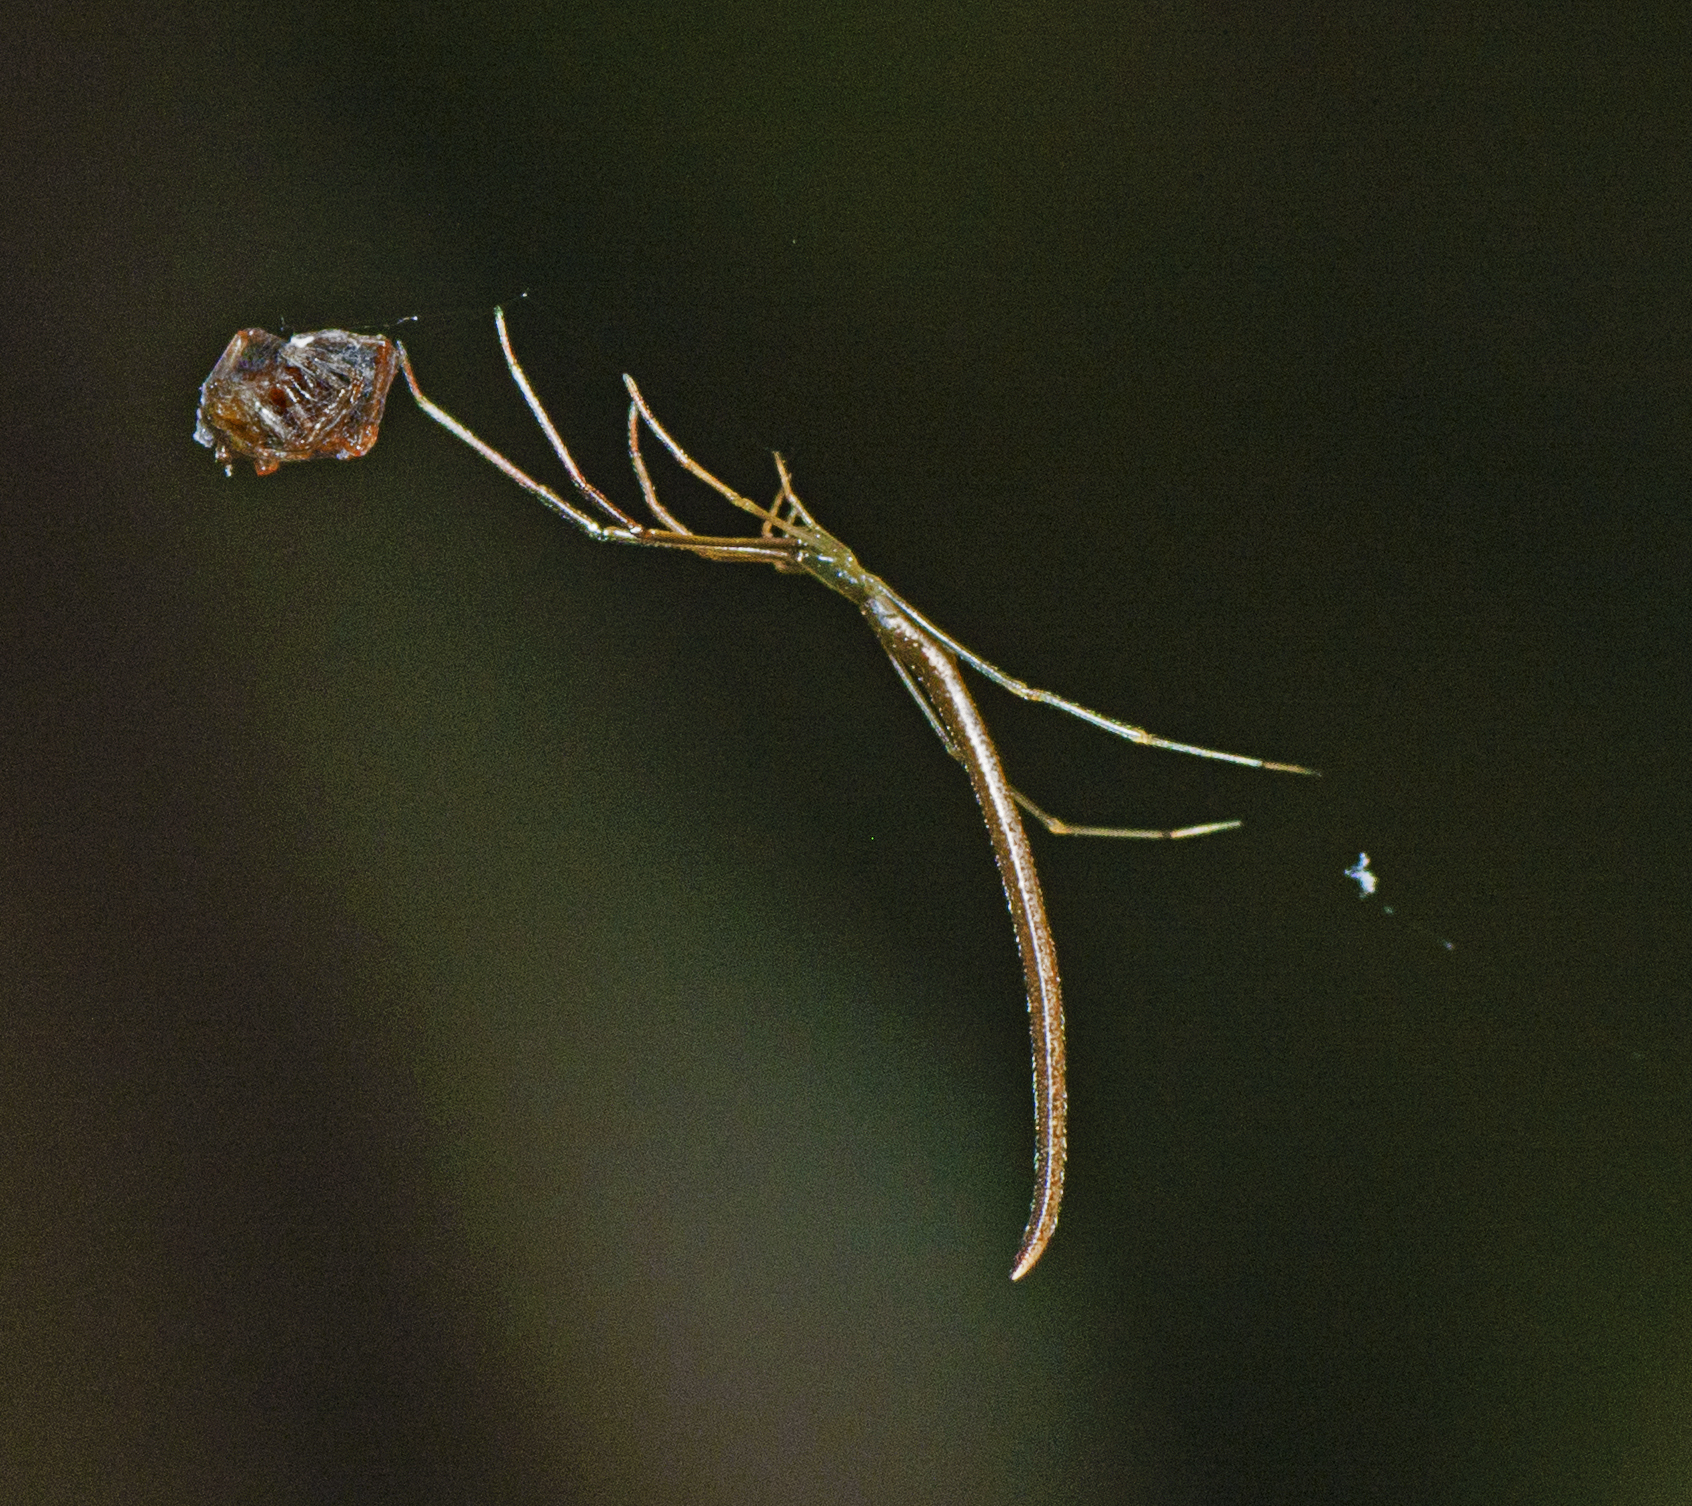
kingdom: Animalia
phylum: Arthropoda
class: Arachnida
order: Araneae
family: Theridiidae
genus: Ariamnes
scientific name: Ariamnes colubrinus
